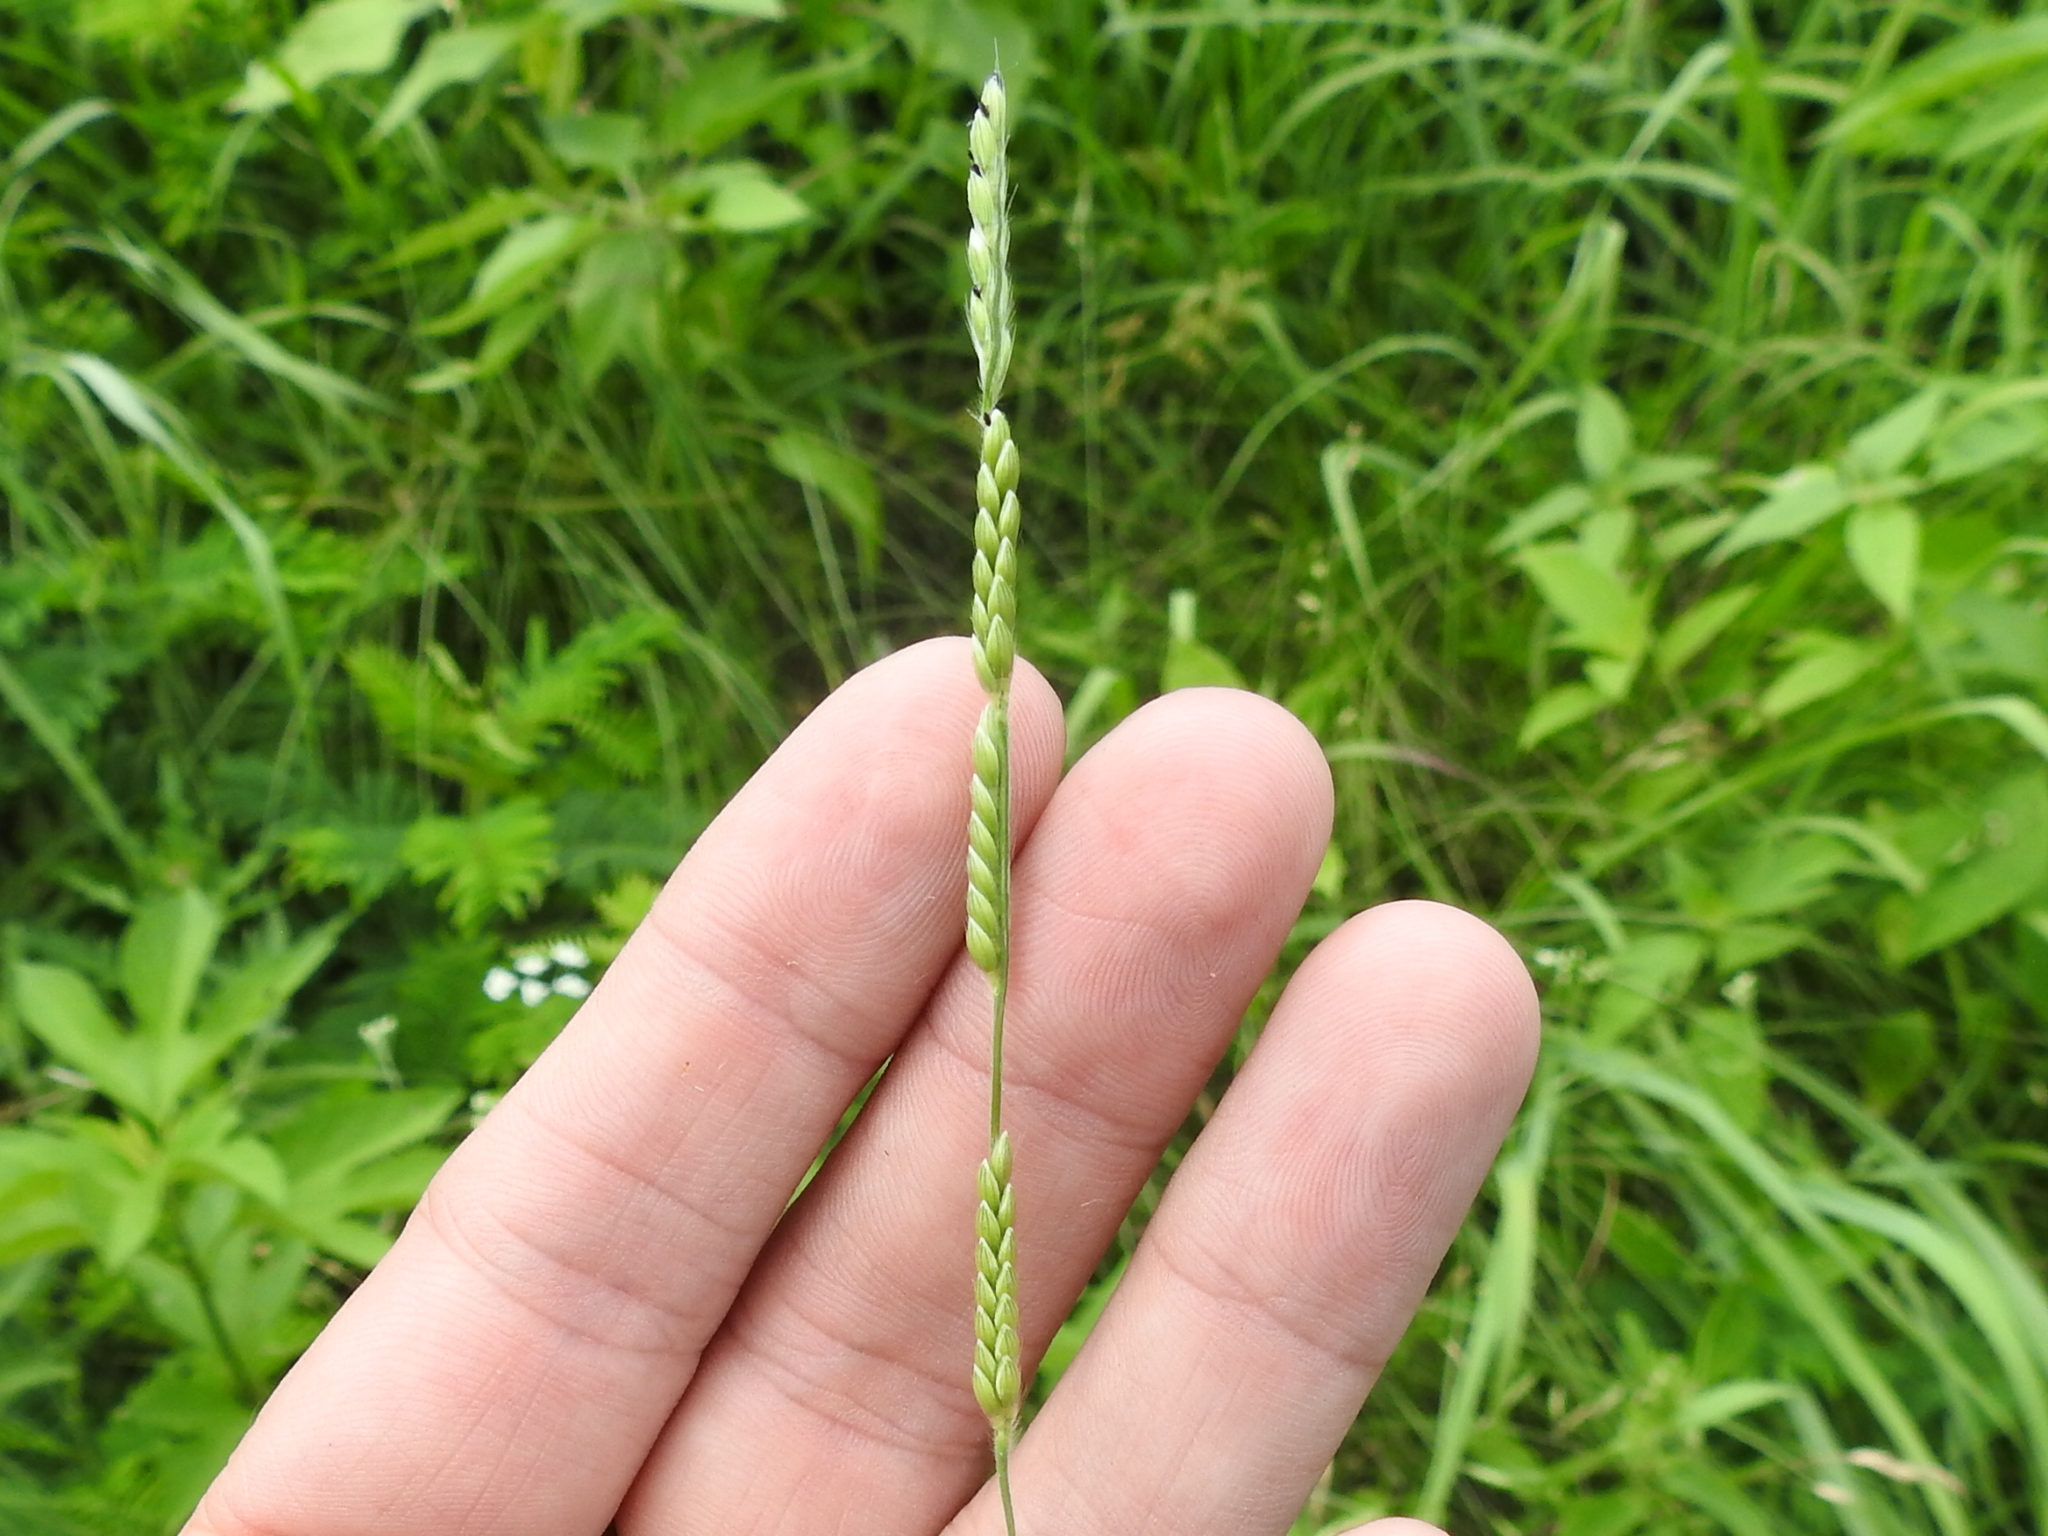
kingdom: Plantae
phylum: Tracheophyta
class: Liliopsida
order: Poales
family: Poaceae
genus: Eriochloa
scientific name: Eriochloa sericea
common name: Texas cup grass
